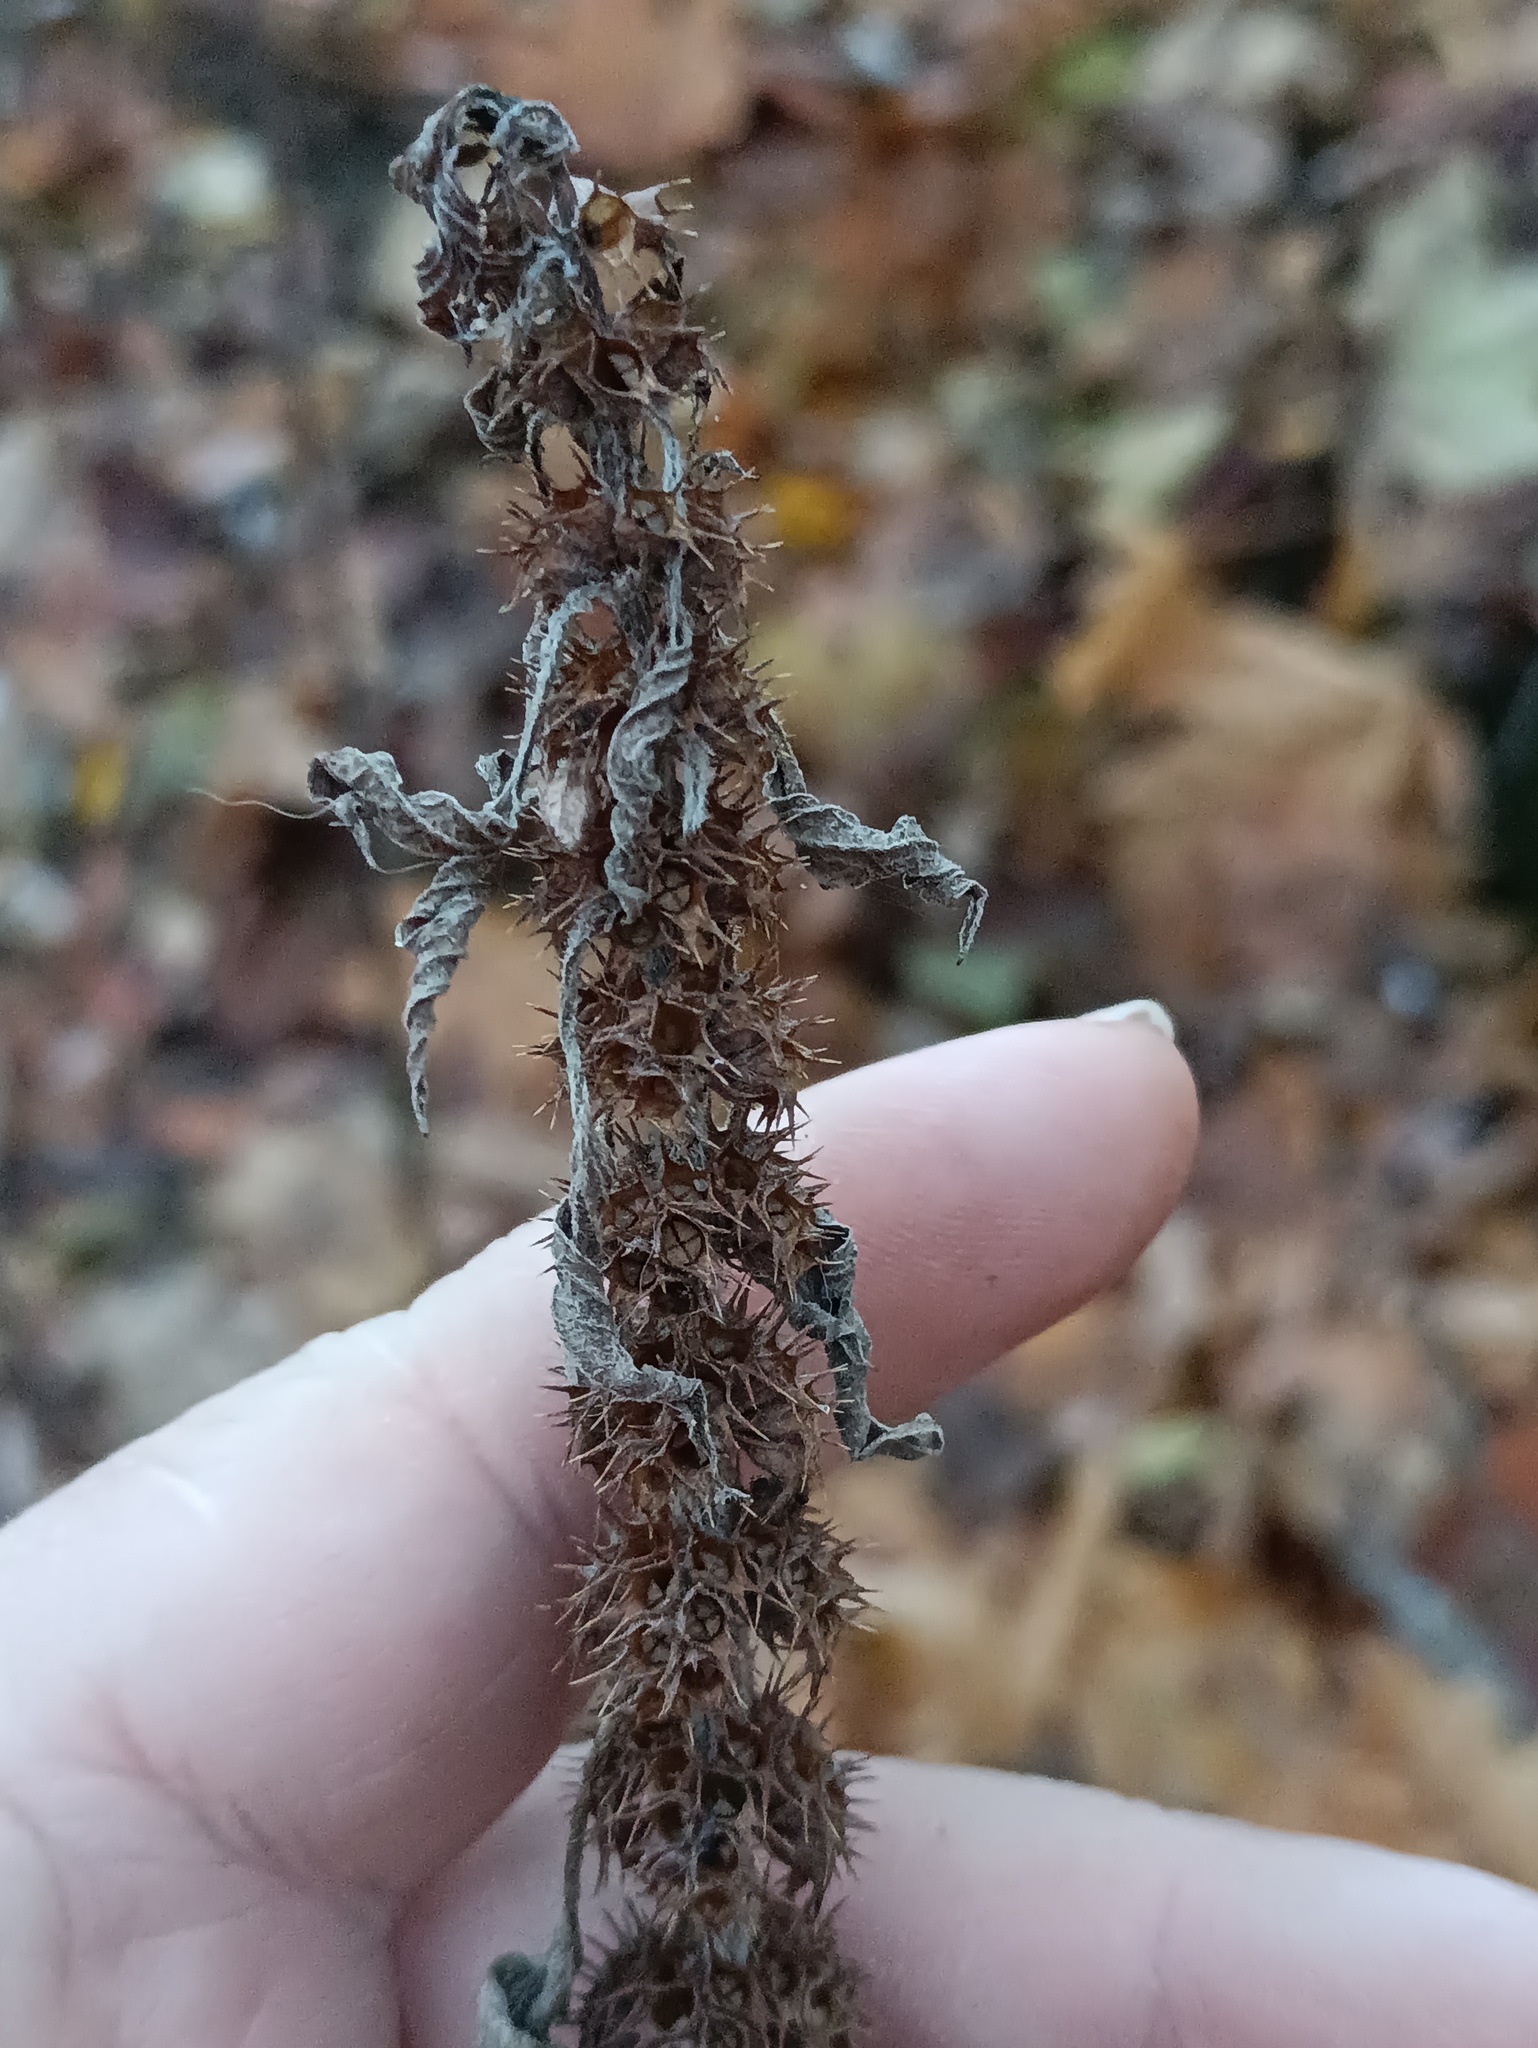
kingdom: Plantae
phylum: Tracheophyta
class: Magnoliopsida
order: Lamiales
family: Lamiaceae
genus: Leonurus
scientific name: Leonurus quinquelobatus
